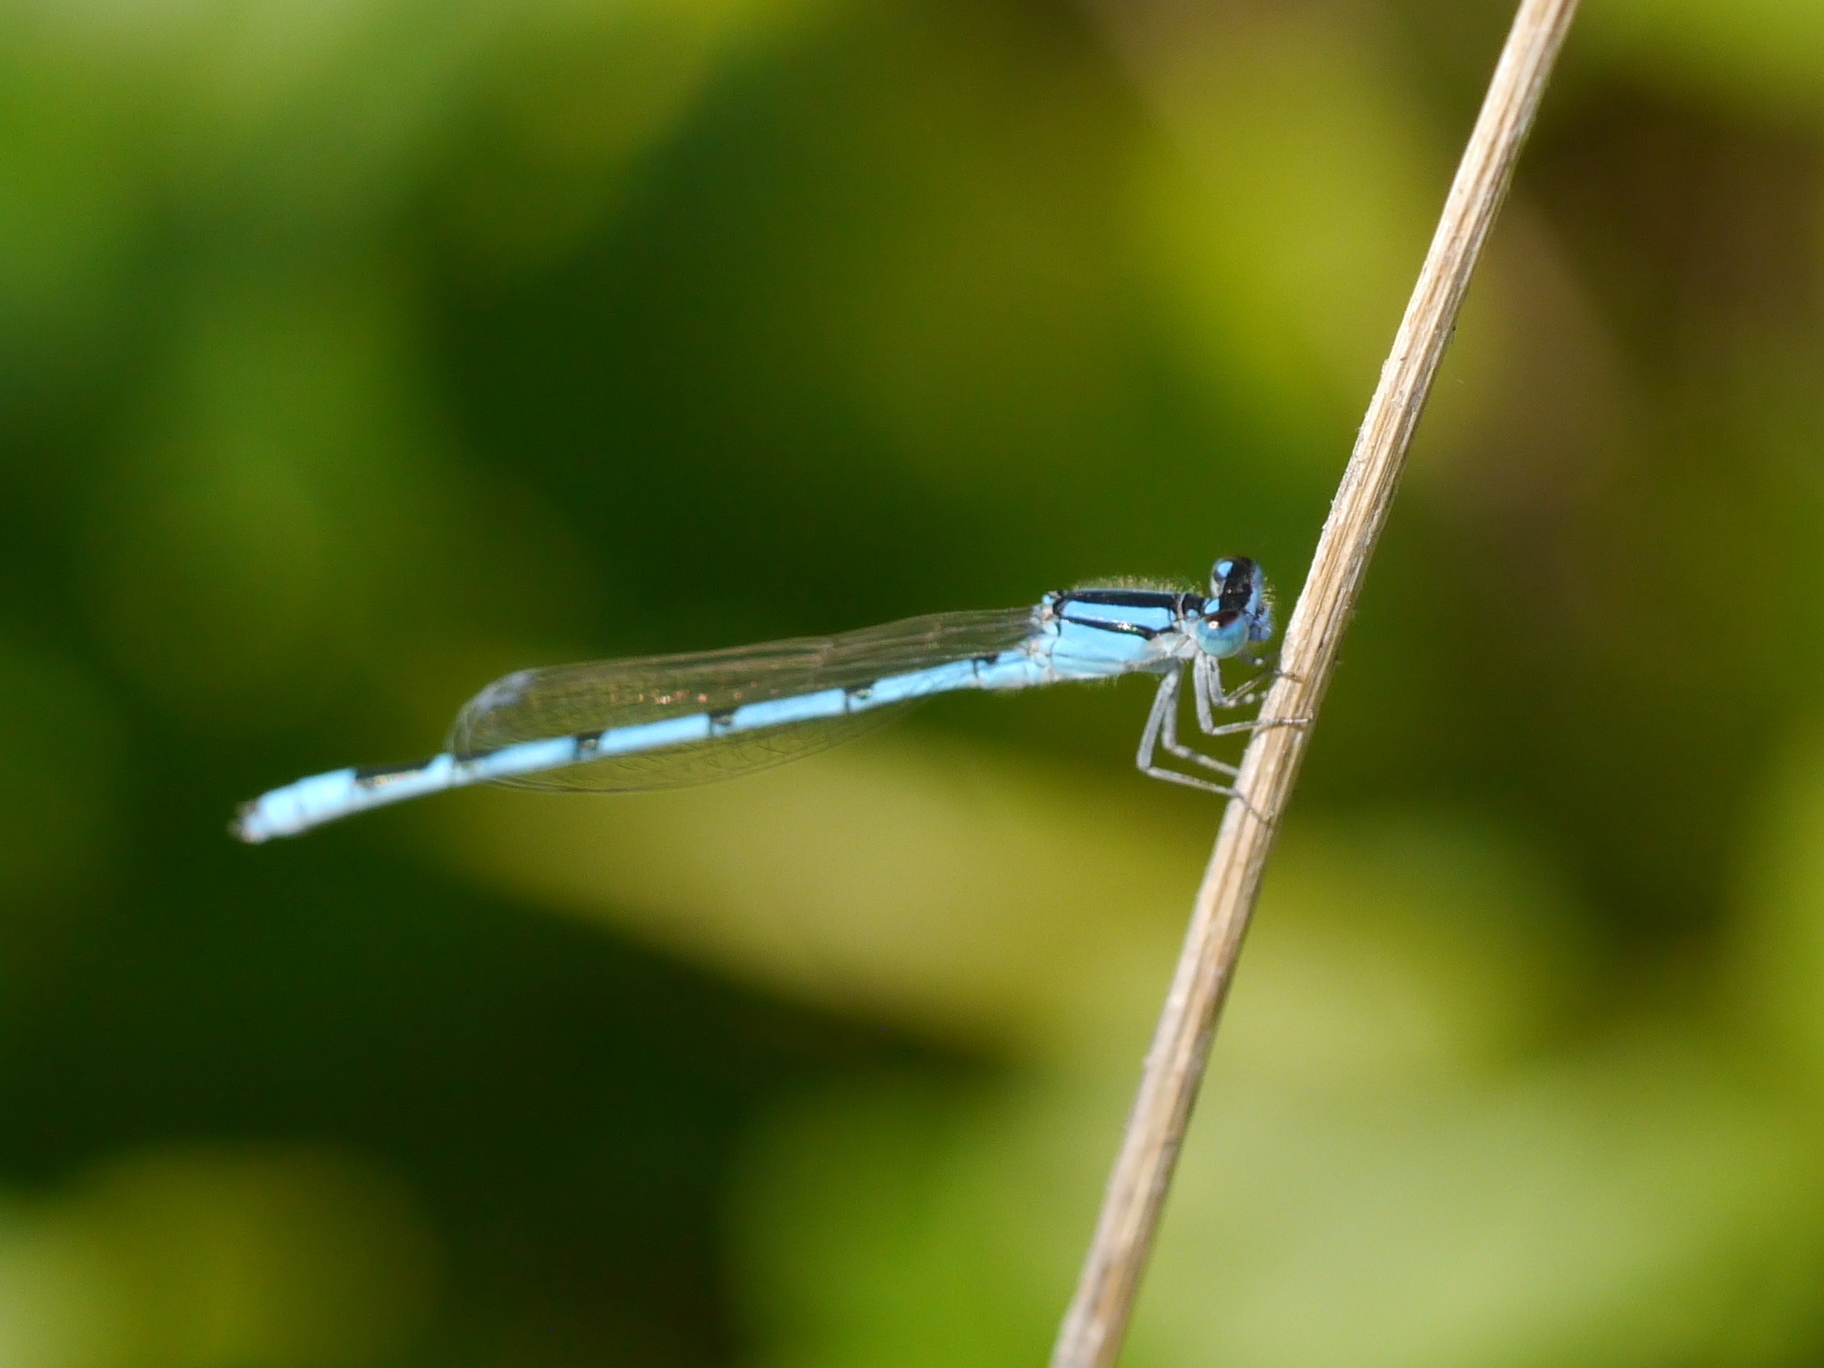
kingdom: Animalia
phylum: Arthropoda
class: Insecta
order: Odonata
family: Coenagrionidae
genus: Enallagma
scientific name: Enallagma civile
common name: Damselfly
